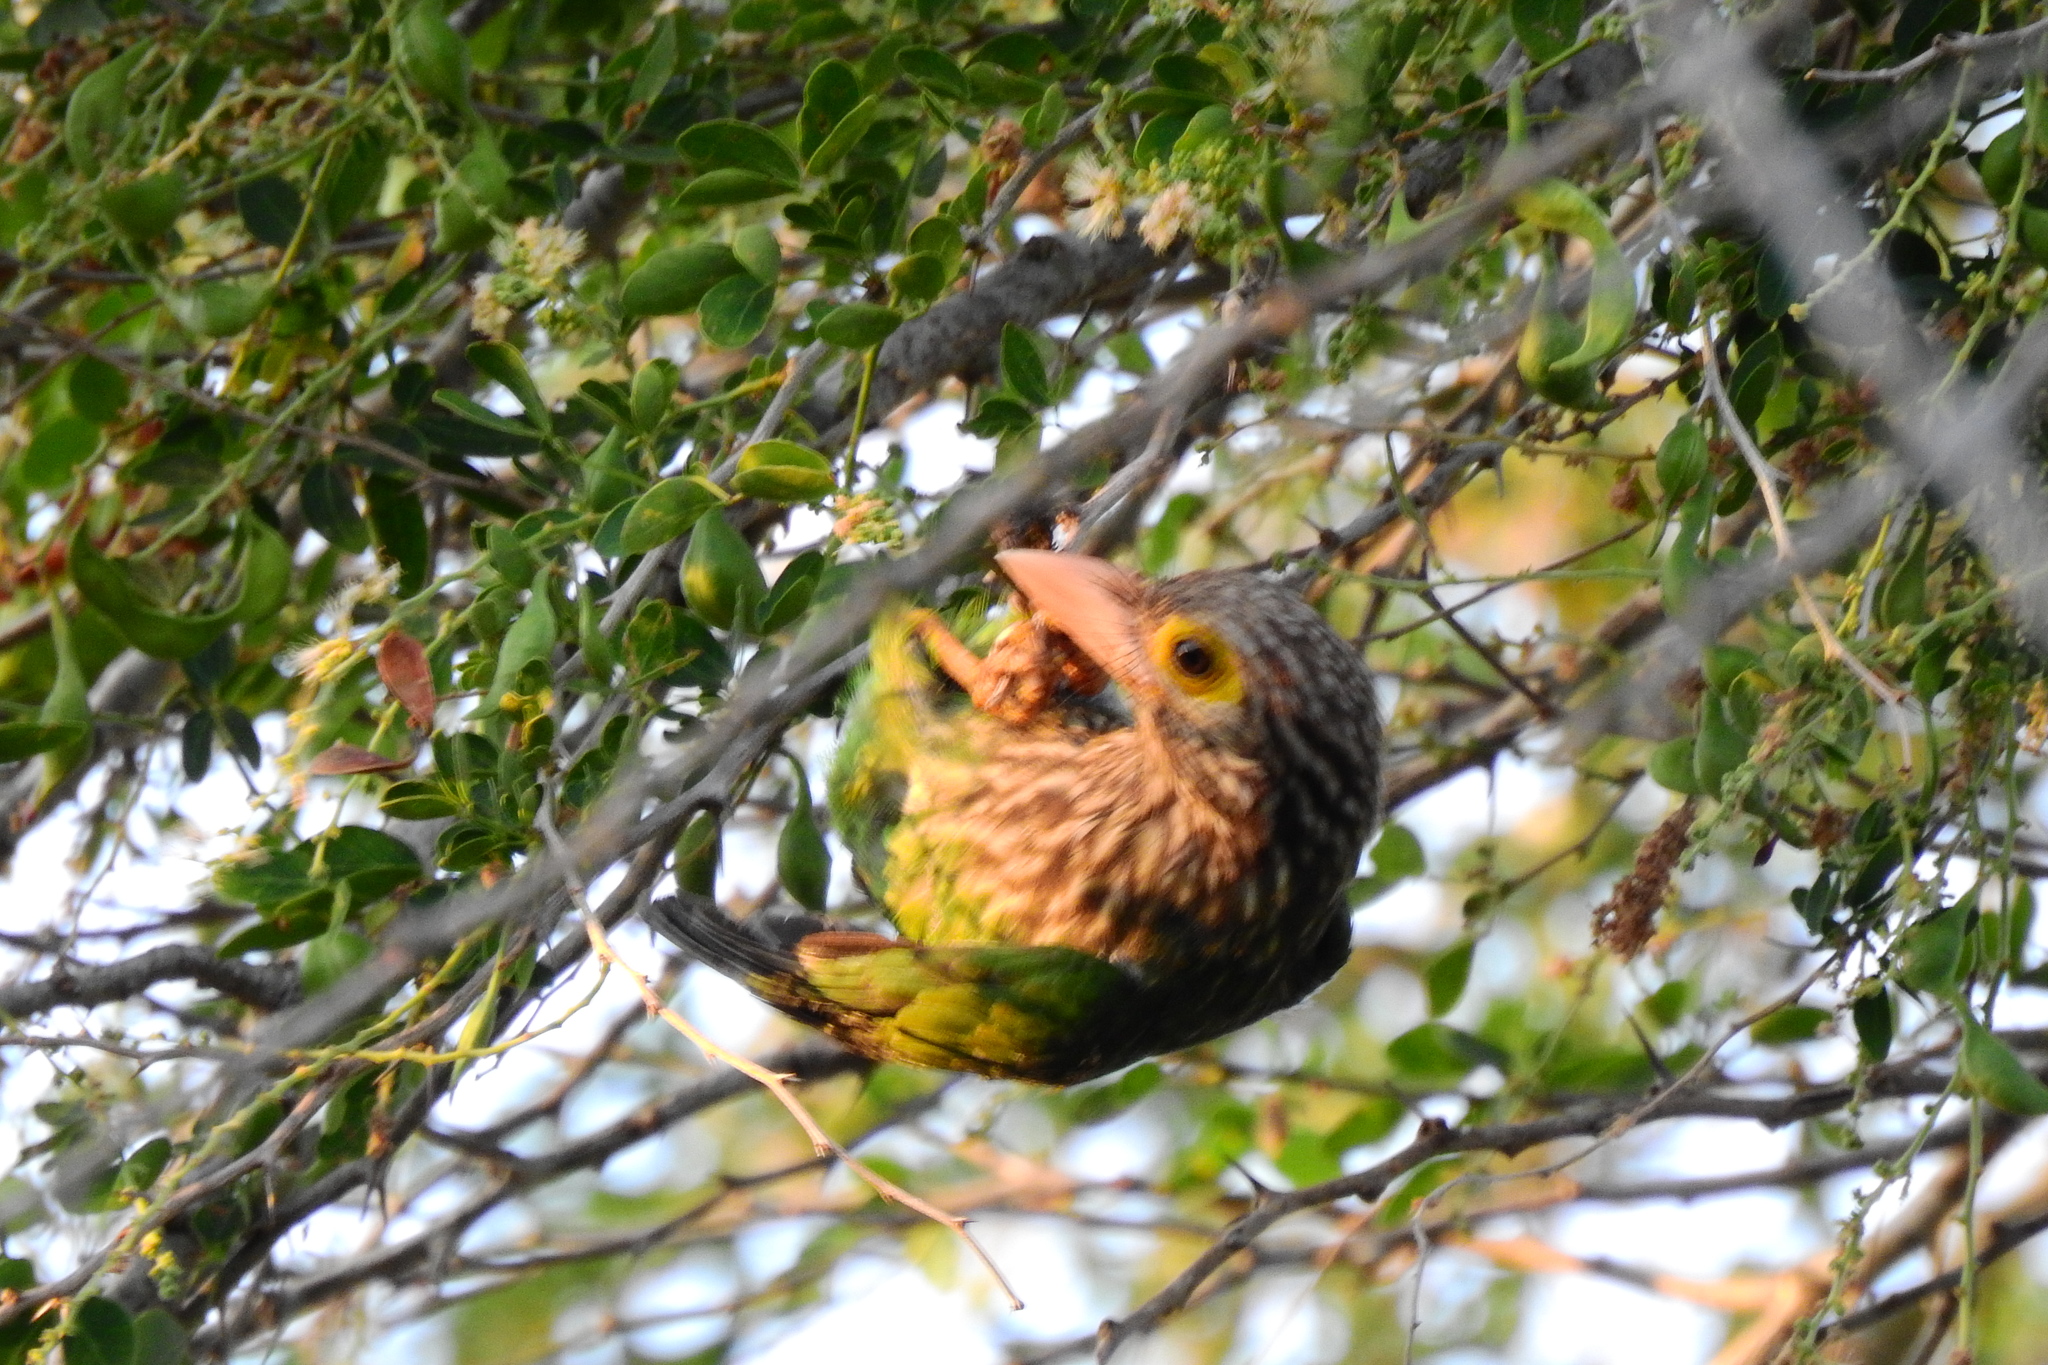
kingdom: Animalia
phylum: Chordata
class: Aves
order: Piciformes
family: Megalaimidae
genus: Psilopogon
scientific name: Psilopogon lineatus
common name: Lineated barbet
